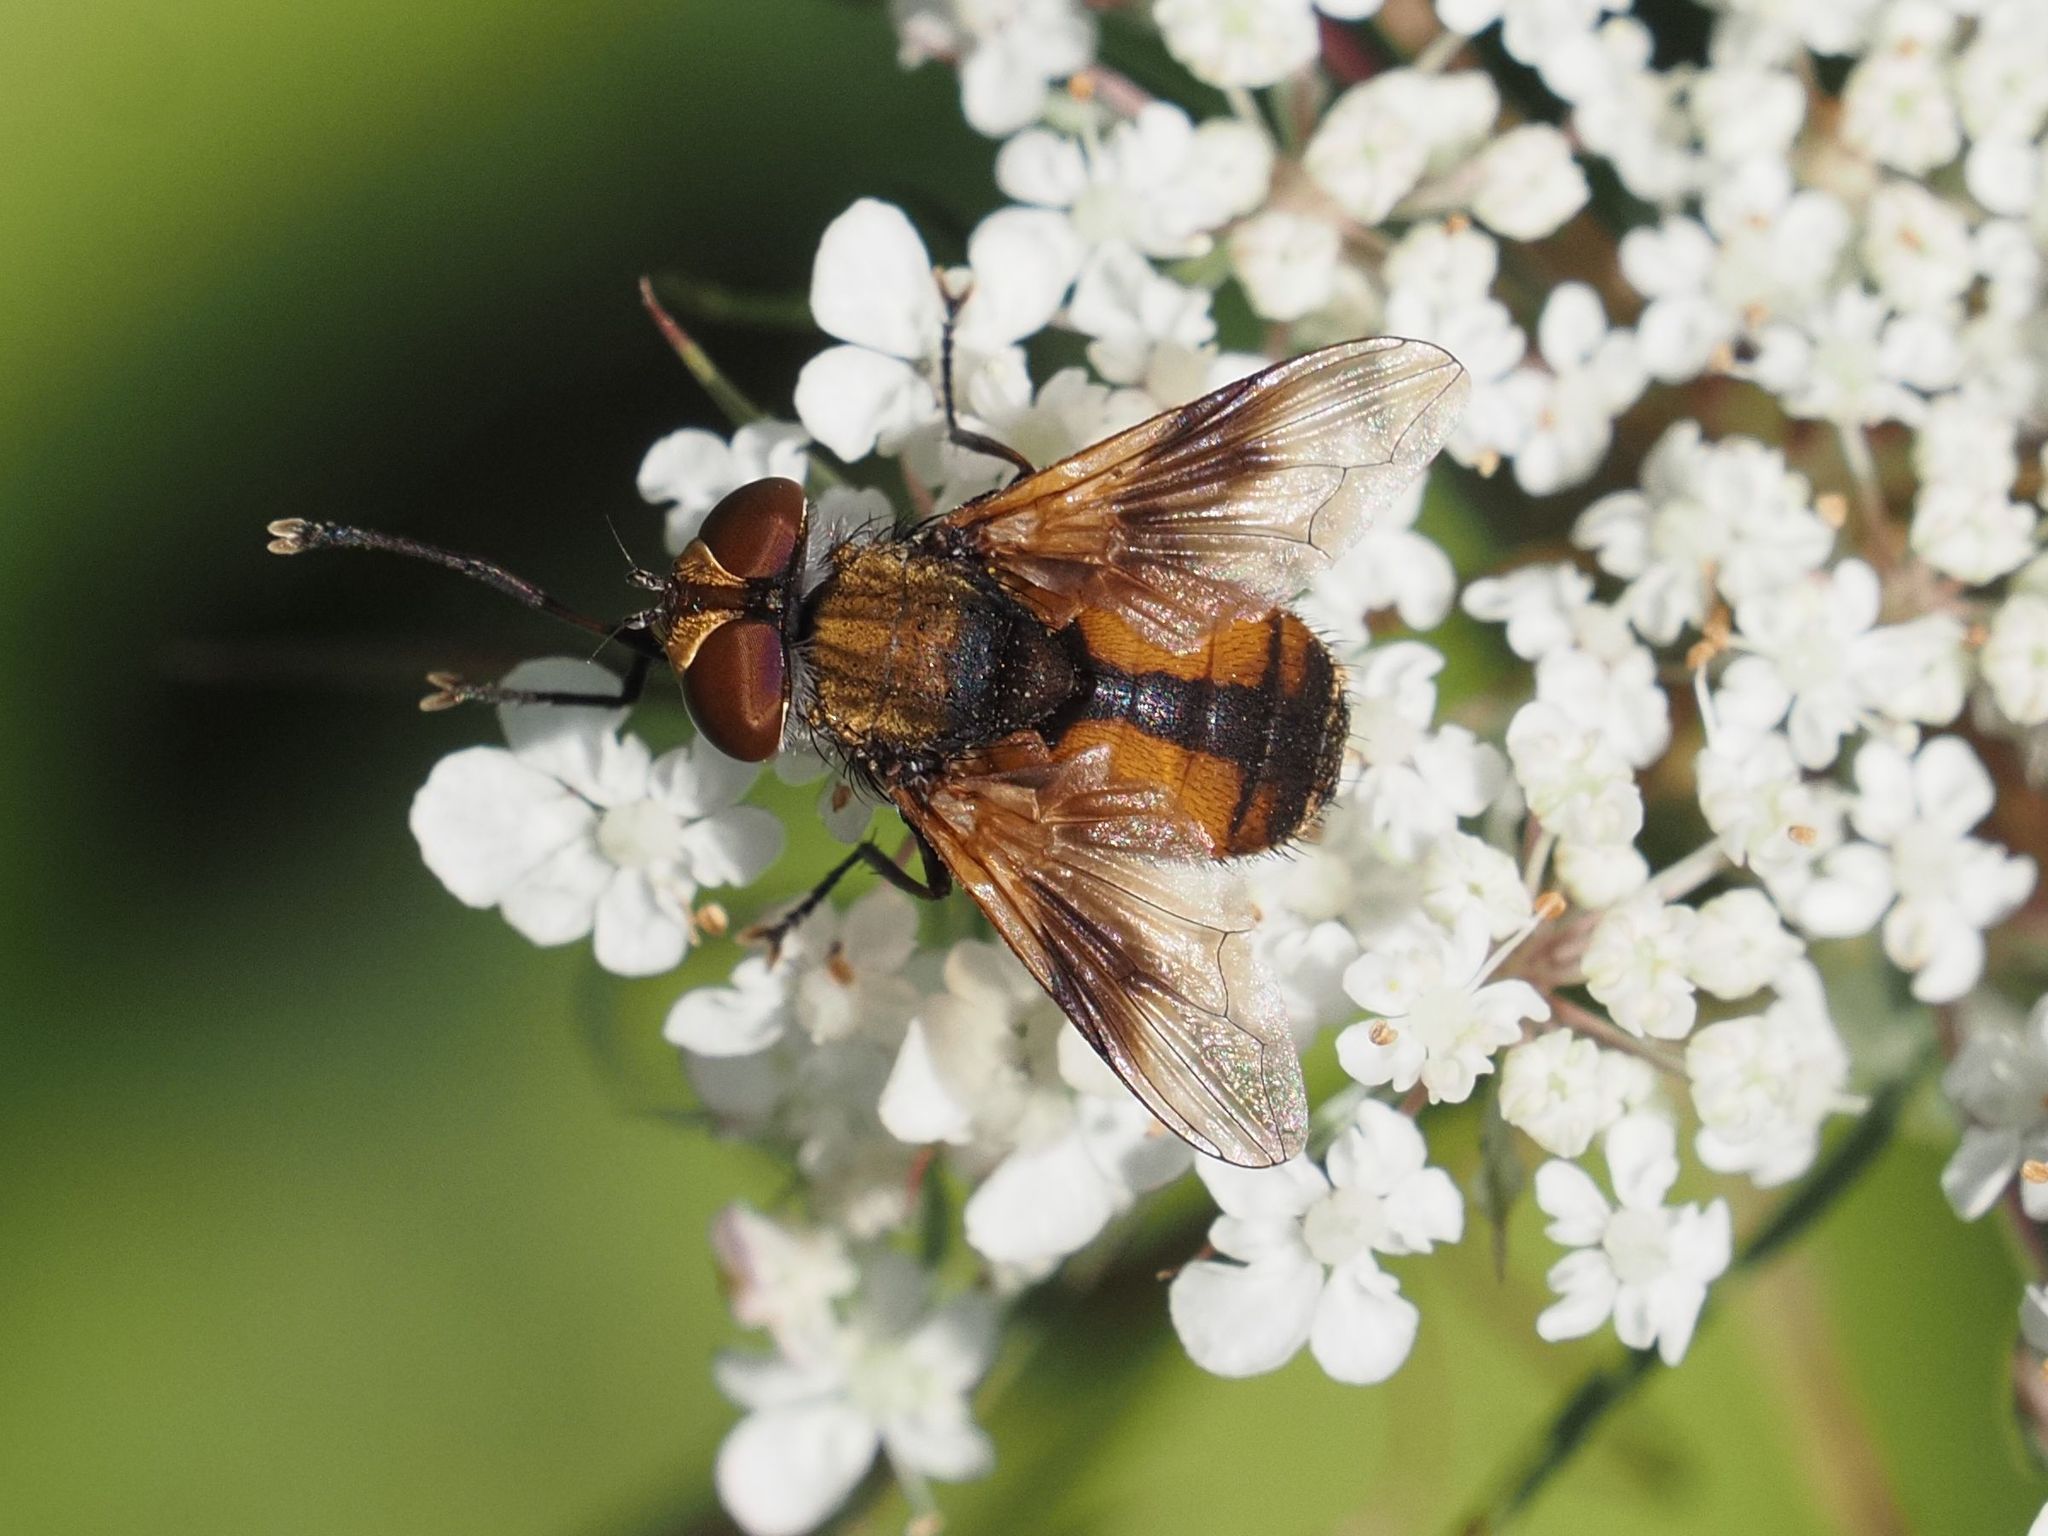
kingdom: Animalia
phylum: Arthropoda
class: Insecta
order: Diptera
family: Tachinidae
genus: Ectophasia
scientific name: Ectophasia crassipennis
